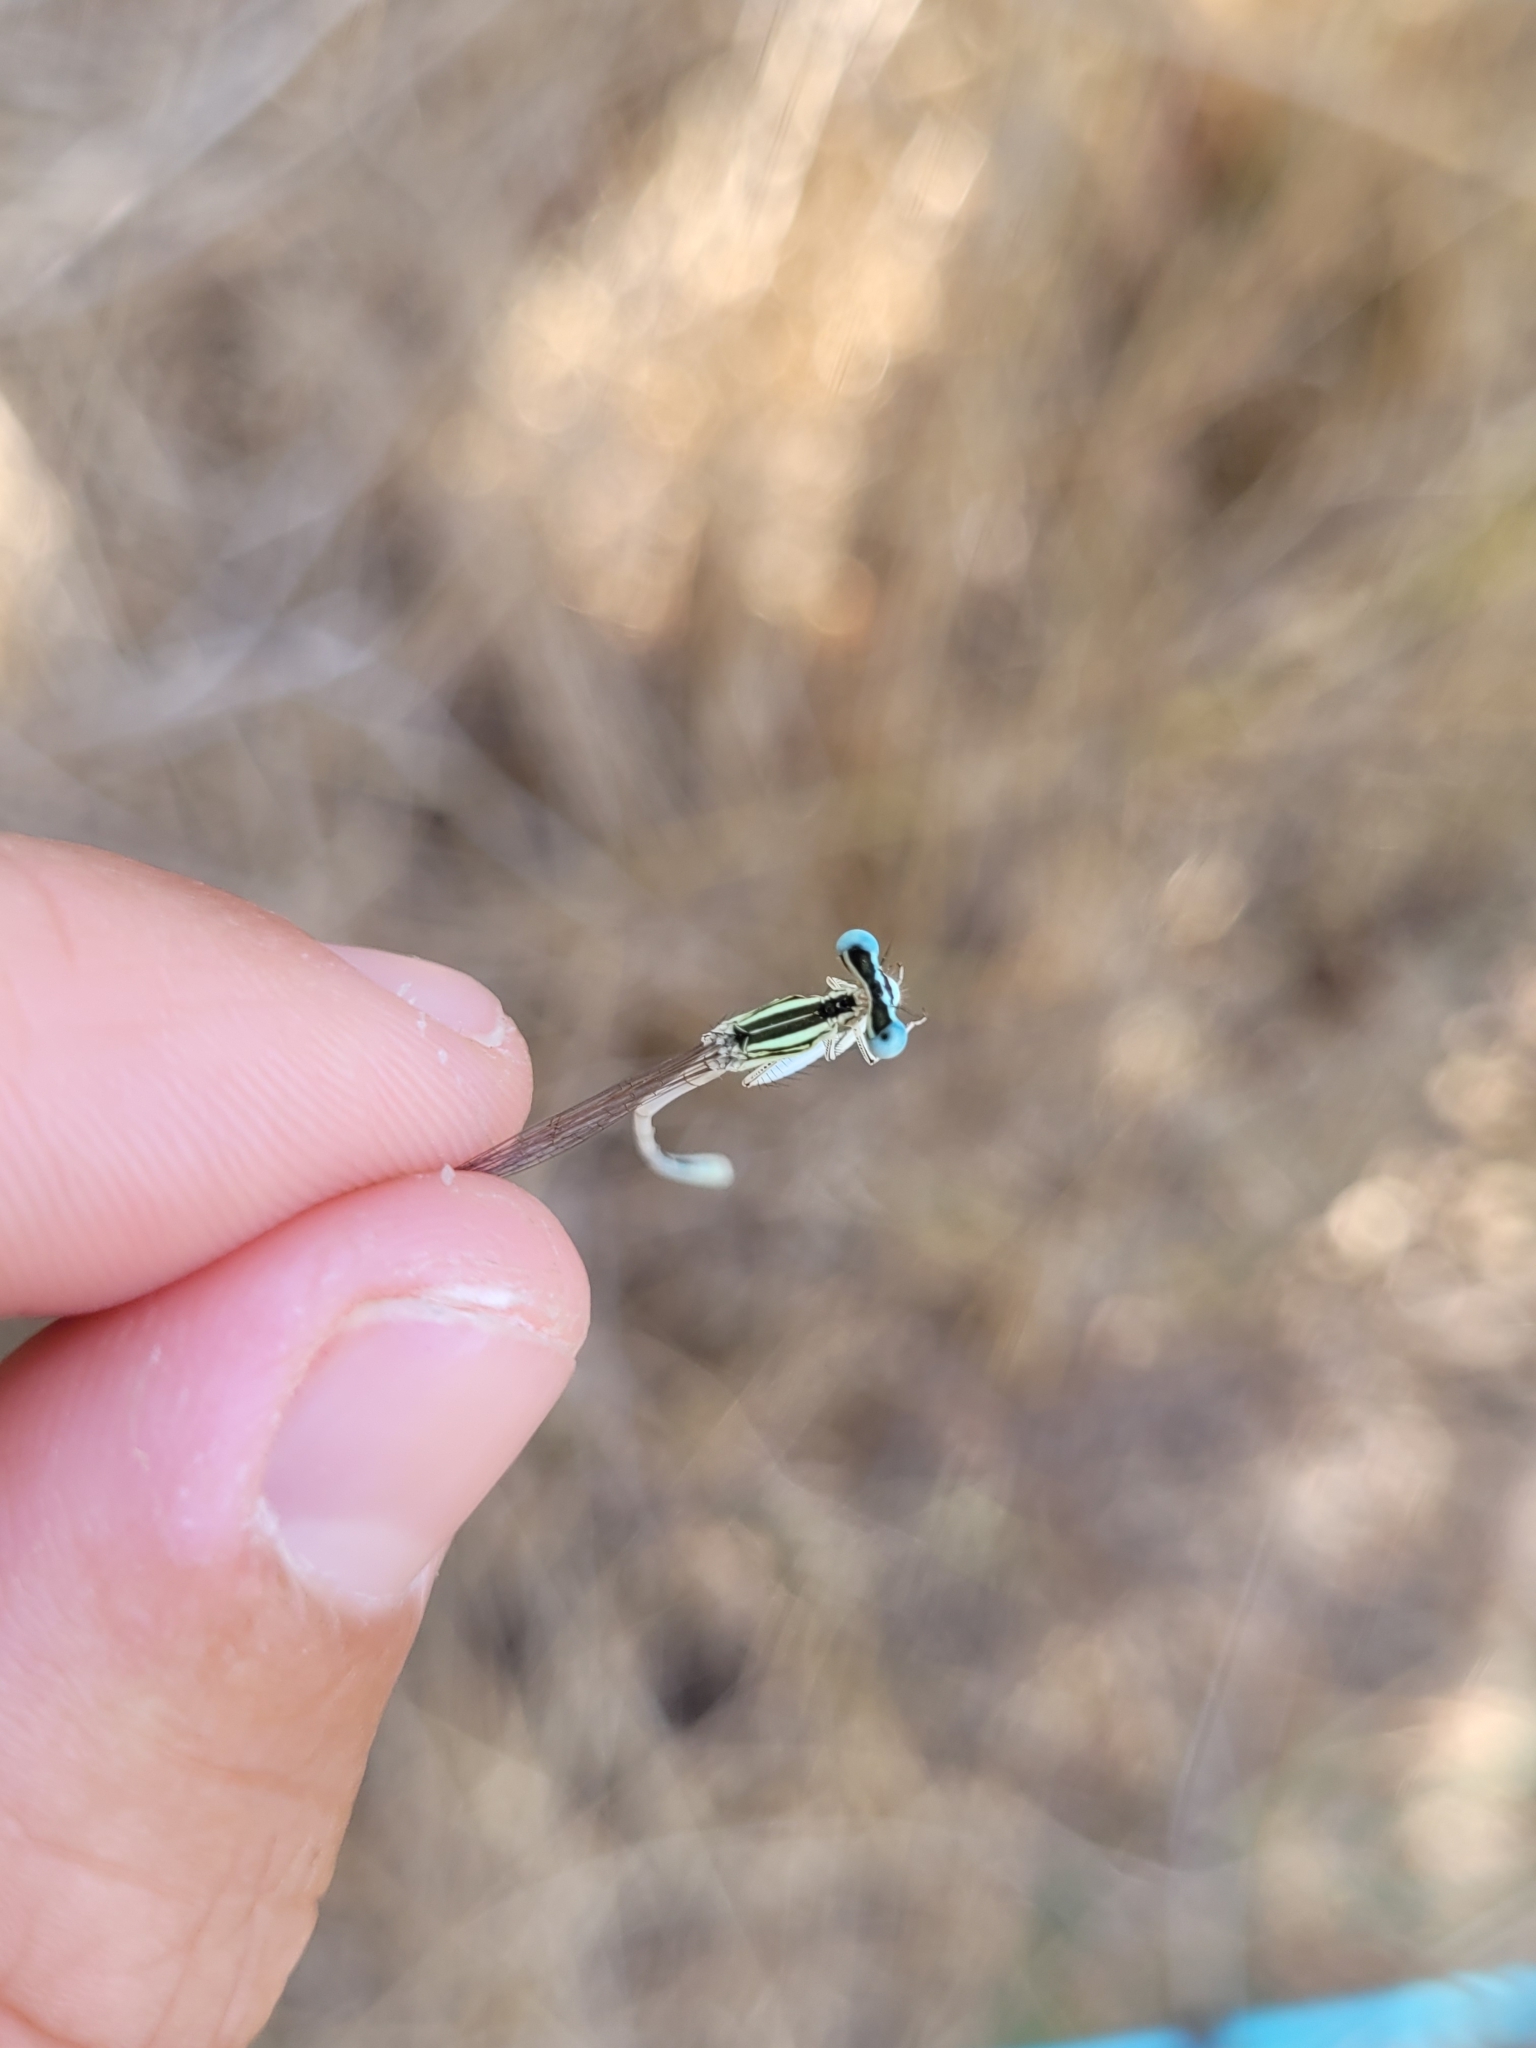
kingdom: Animalia
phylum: Arthropoda
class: Insecta
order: Odonata
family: Platycnemididae
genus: Platycnemis
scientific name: Platycnemis latipes
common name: White featherleg
